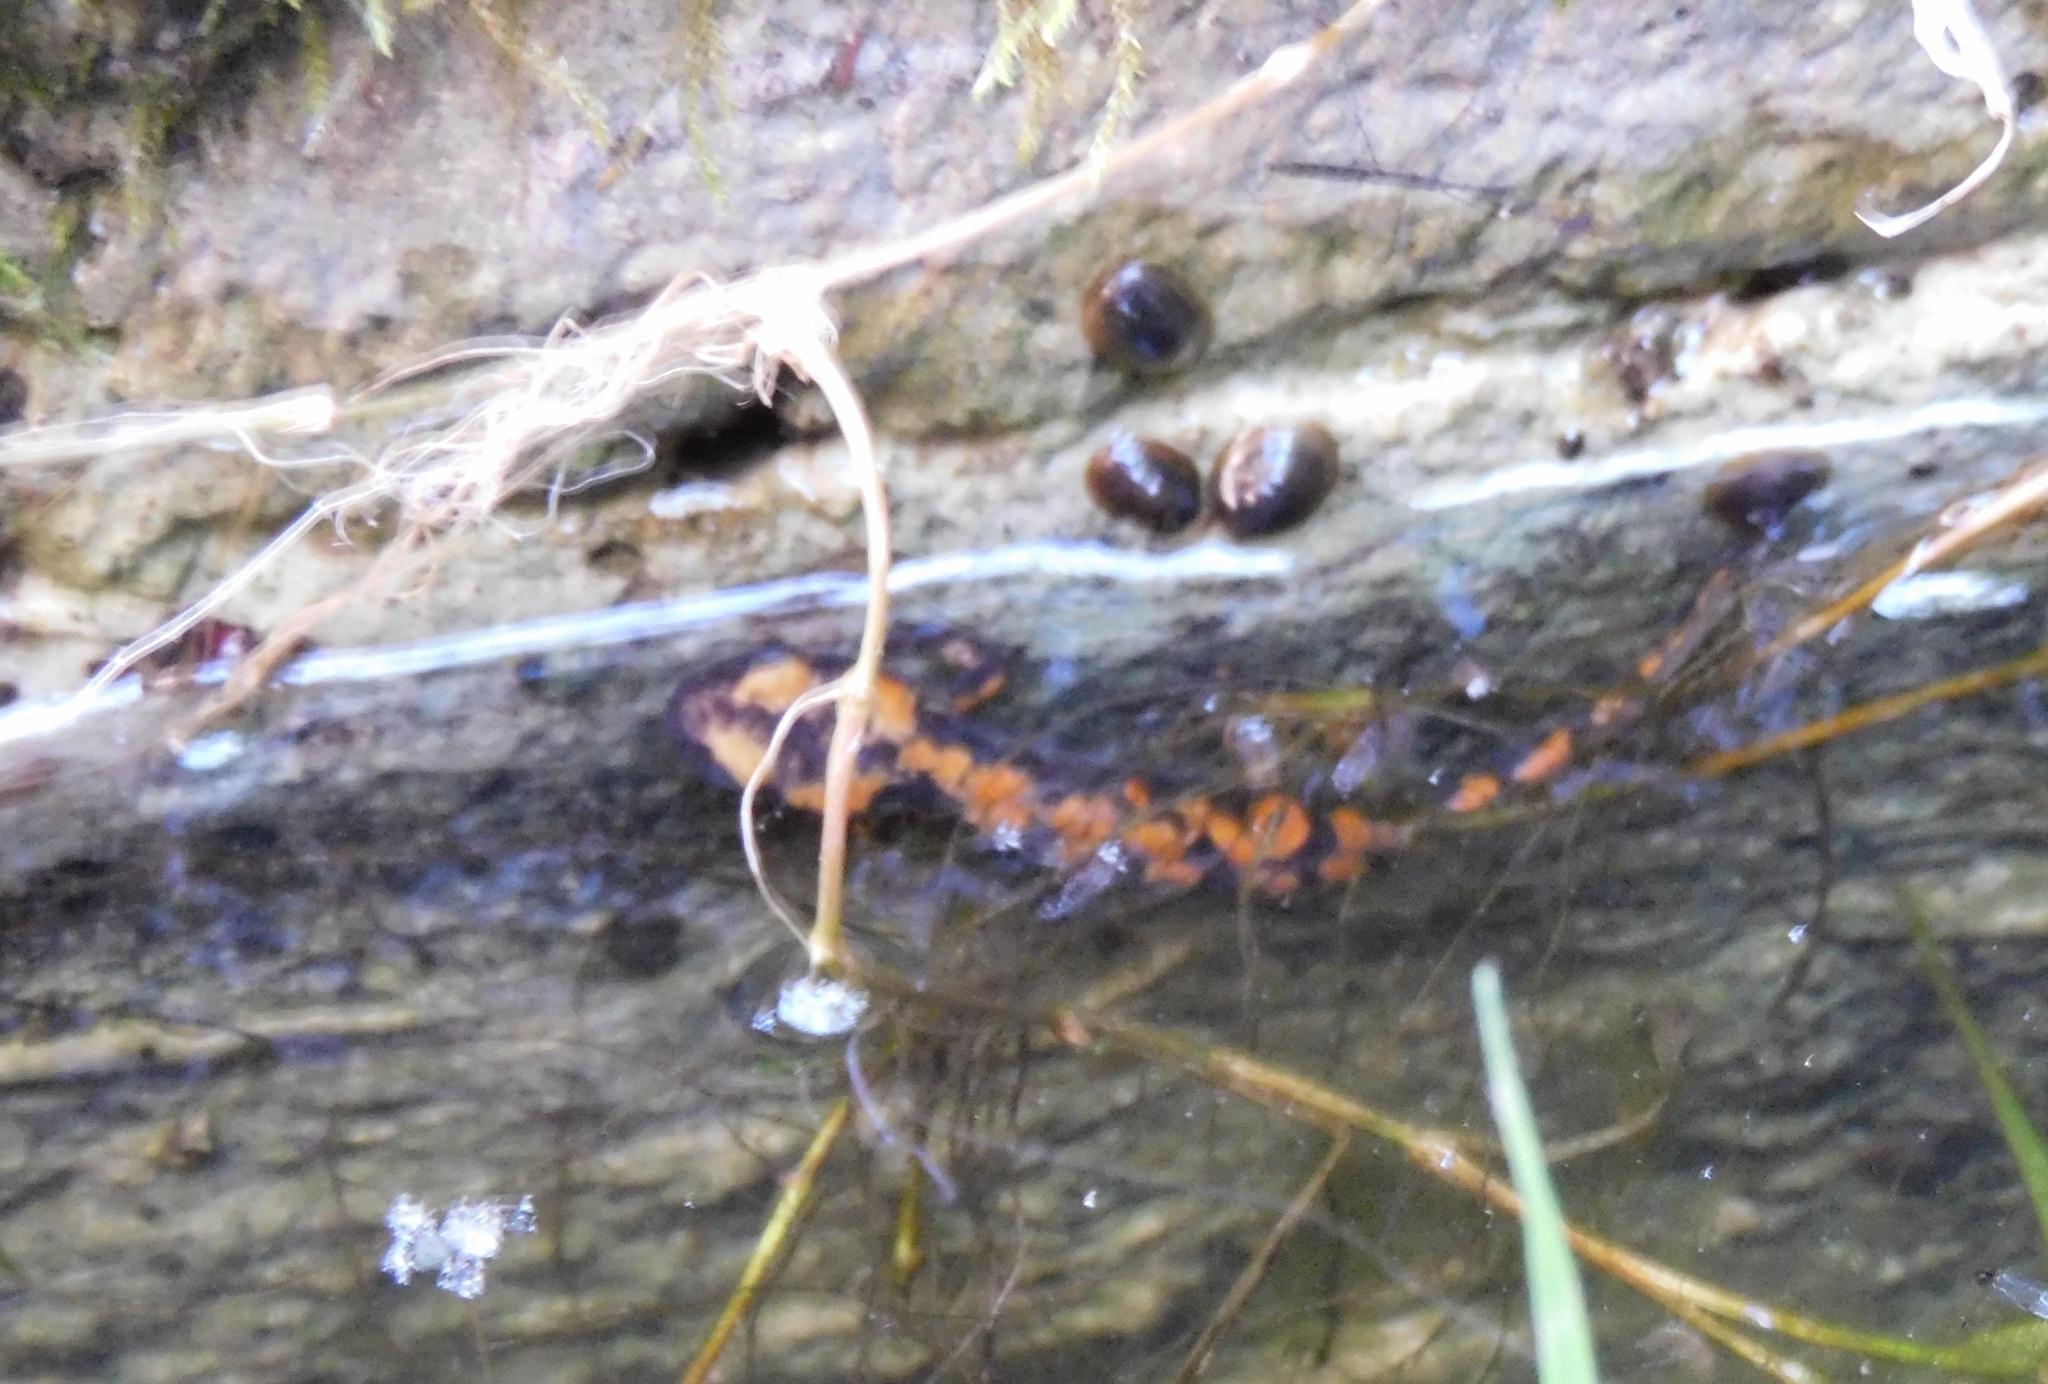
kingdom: Animalia
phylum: Chordata
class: Amphibia
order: Caudata
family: Salamandridae
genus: Salamandra
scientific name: Salamandra salamandra
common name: Fire salamander
